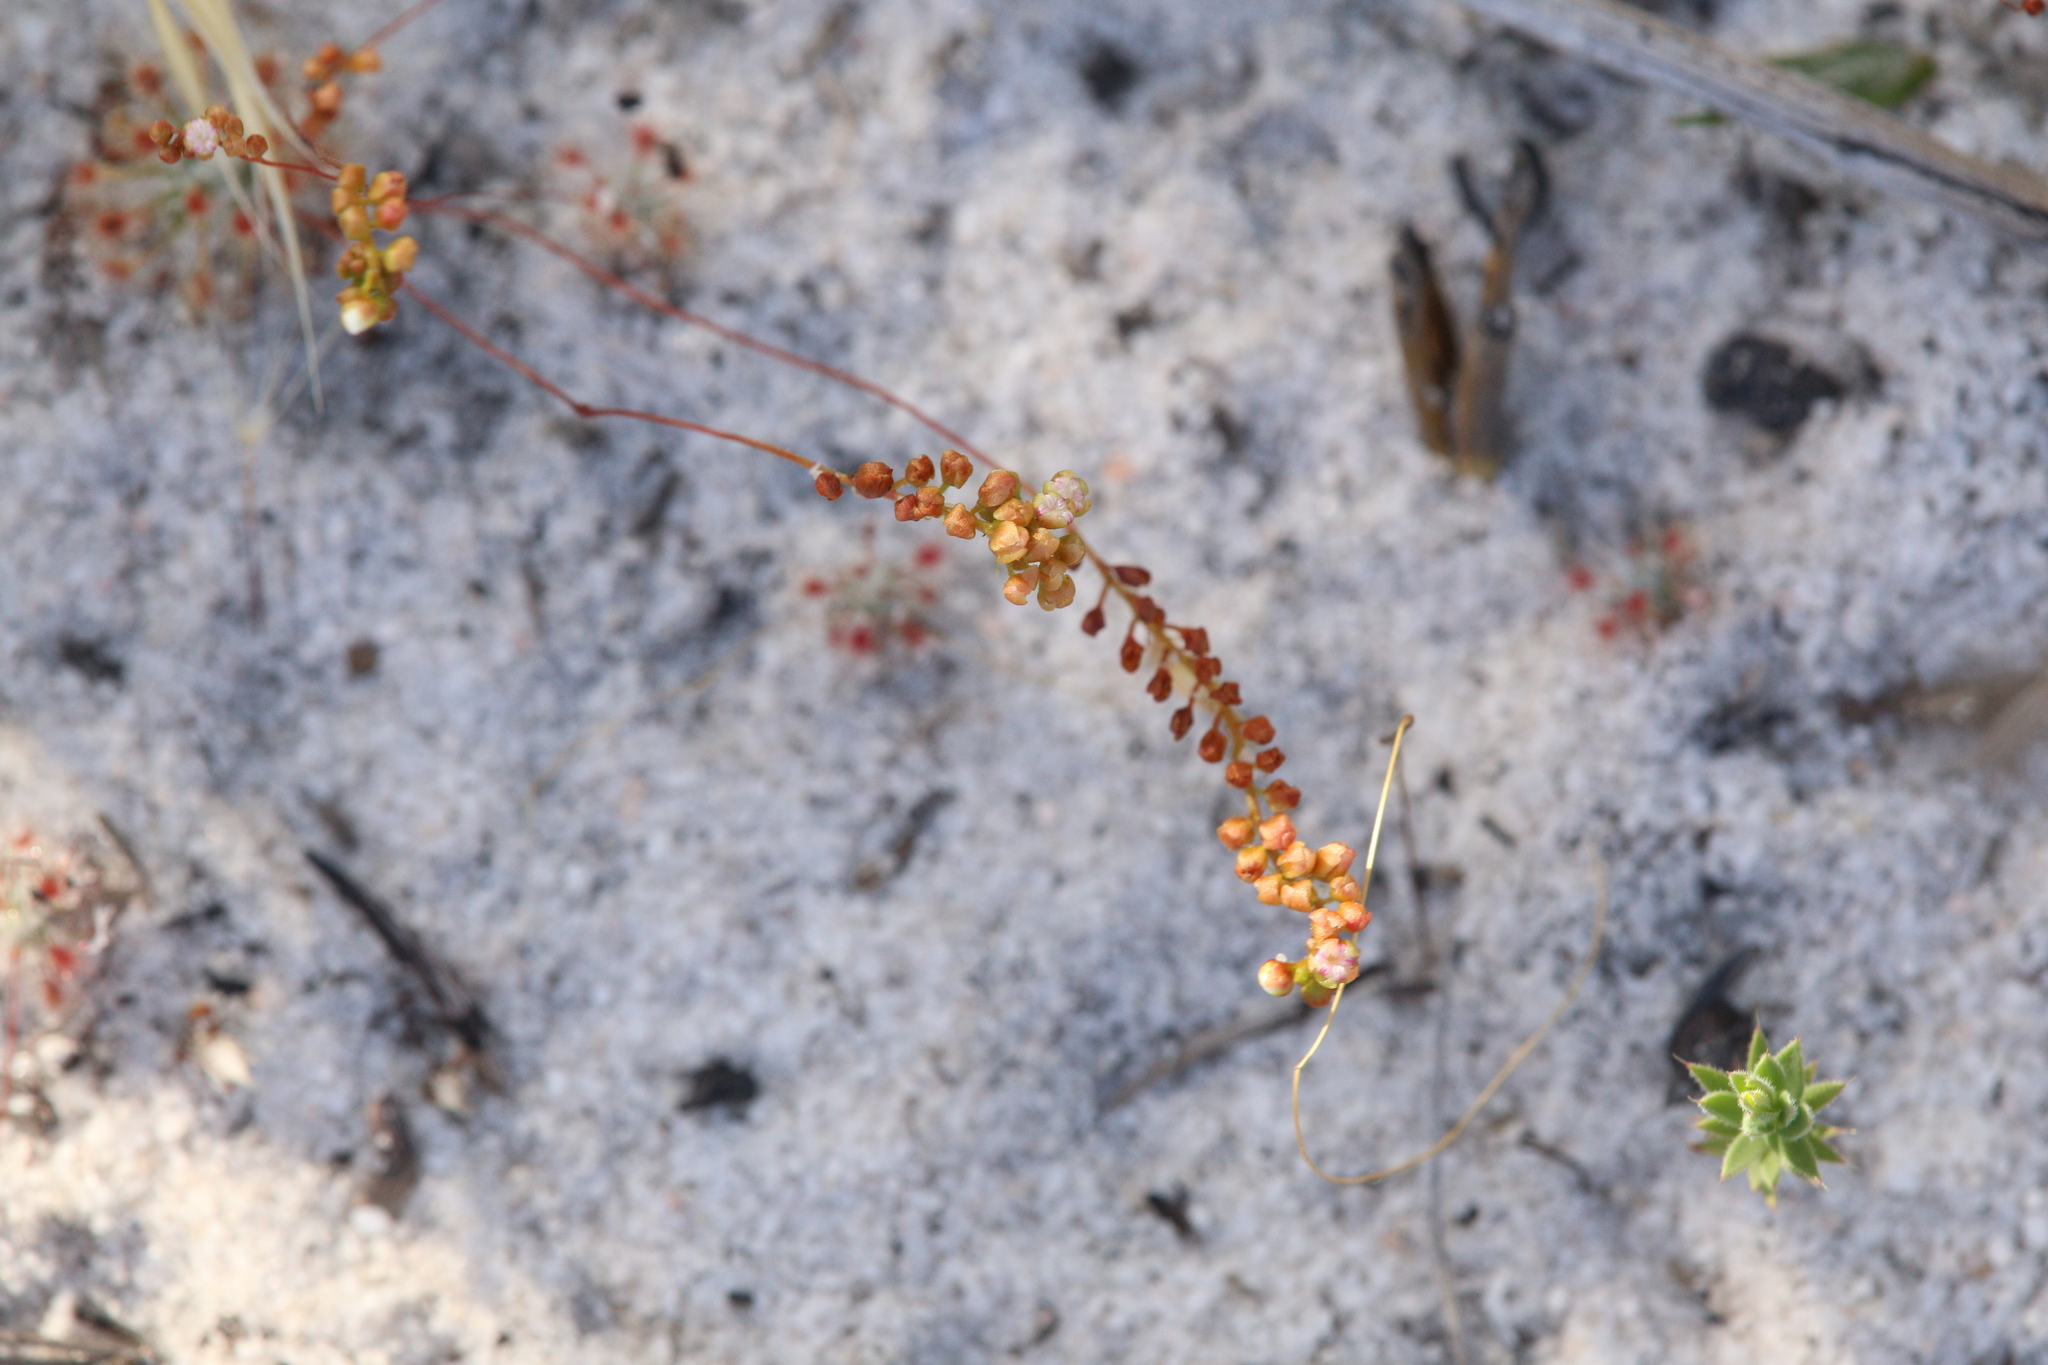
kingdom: Plantae
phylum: Tracheophyta
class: Magnoliopsida
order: Caryophyllales
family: Droseraceae
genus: Drosera
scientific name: Drosera paleacea
